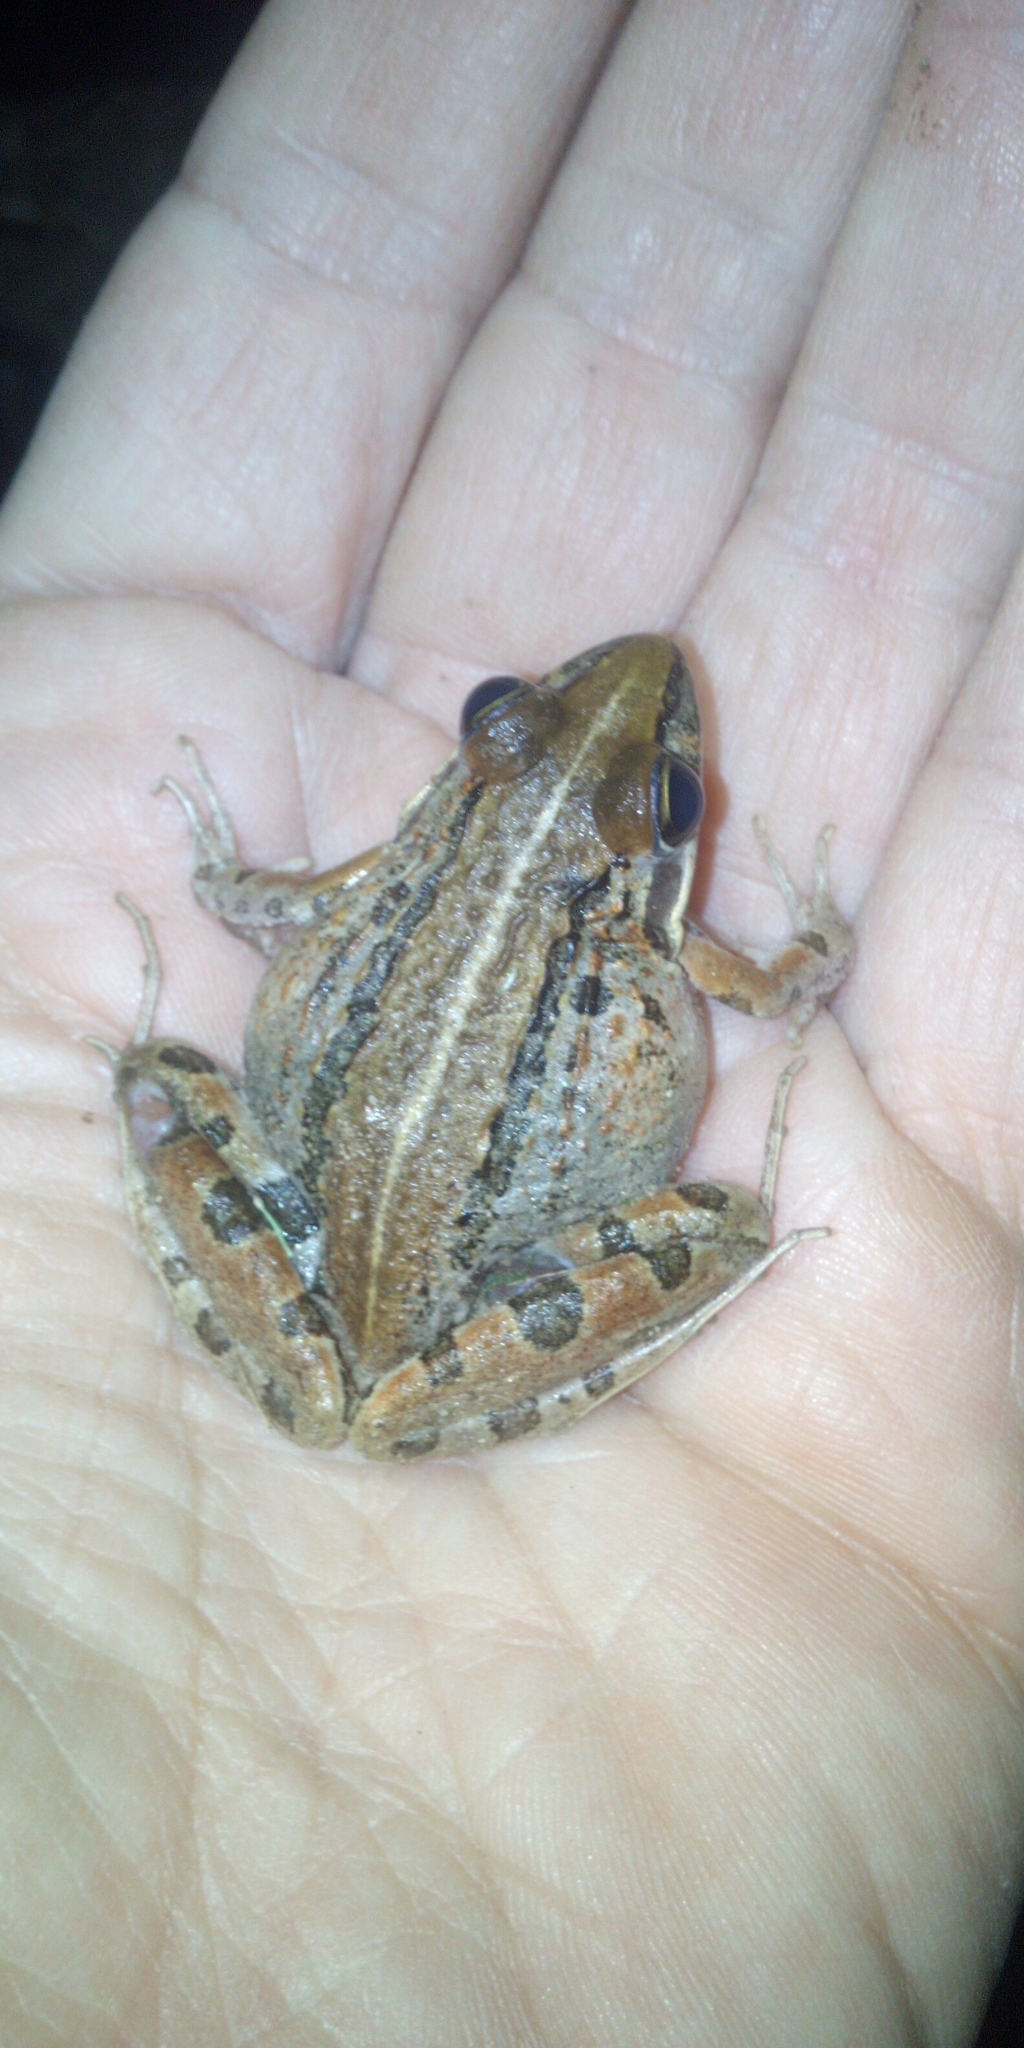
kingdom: Animalia
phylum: Chordata
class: Amphibia
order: Anura
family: Pyxicephalidae
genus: Strongylopus
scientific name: Strongylopus grayii
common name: Gray's stream frog
